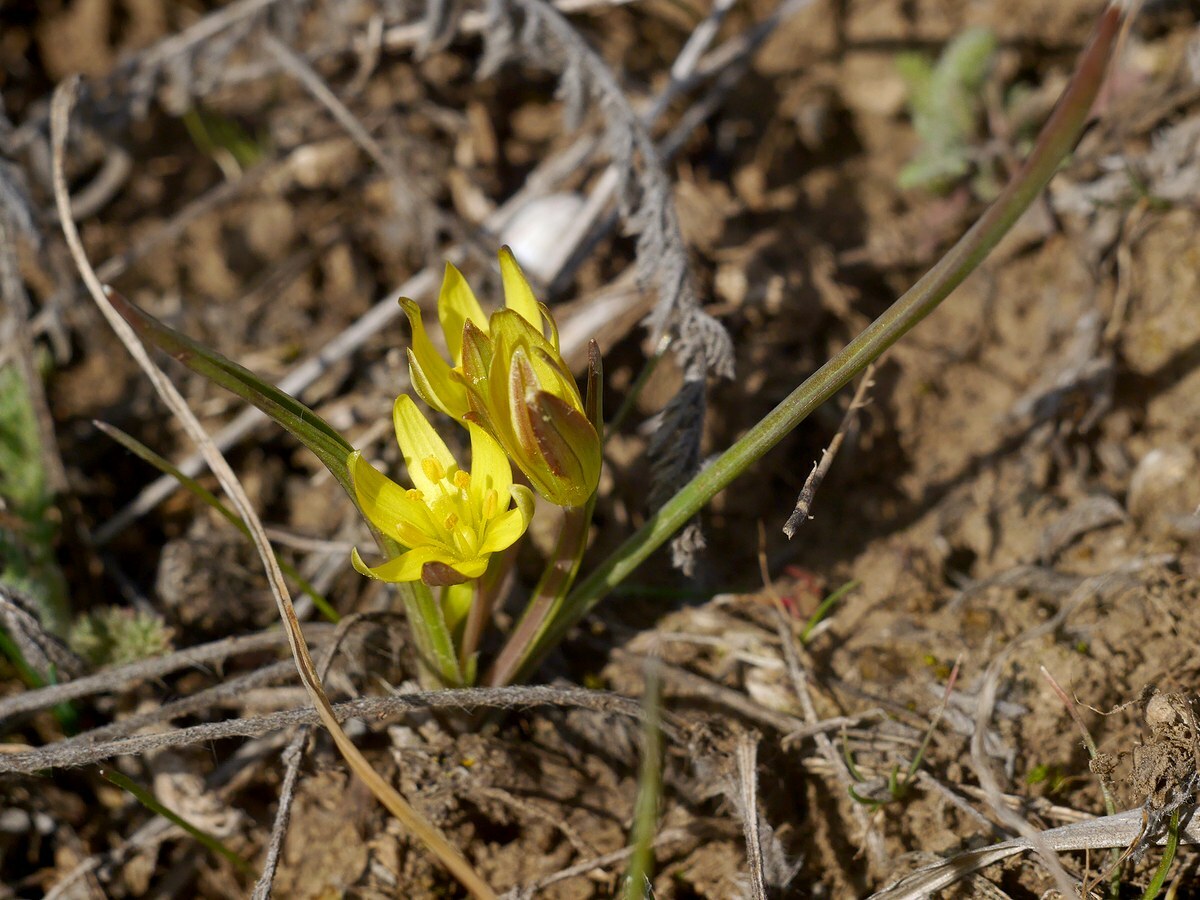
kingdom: Plantae
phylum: Tracheophyta
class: Liliopsida
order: Liliales
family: Liliaceae
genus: Gagea
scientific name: Gagea pusilla
